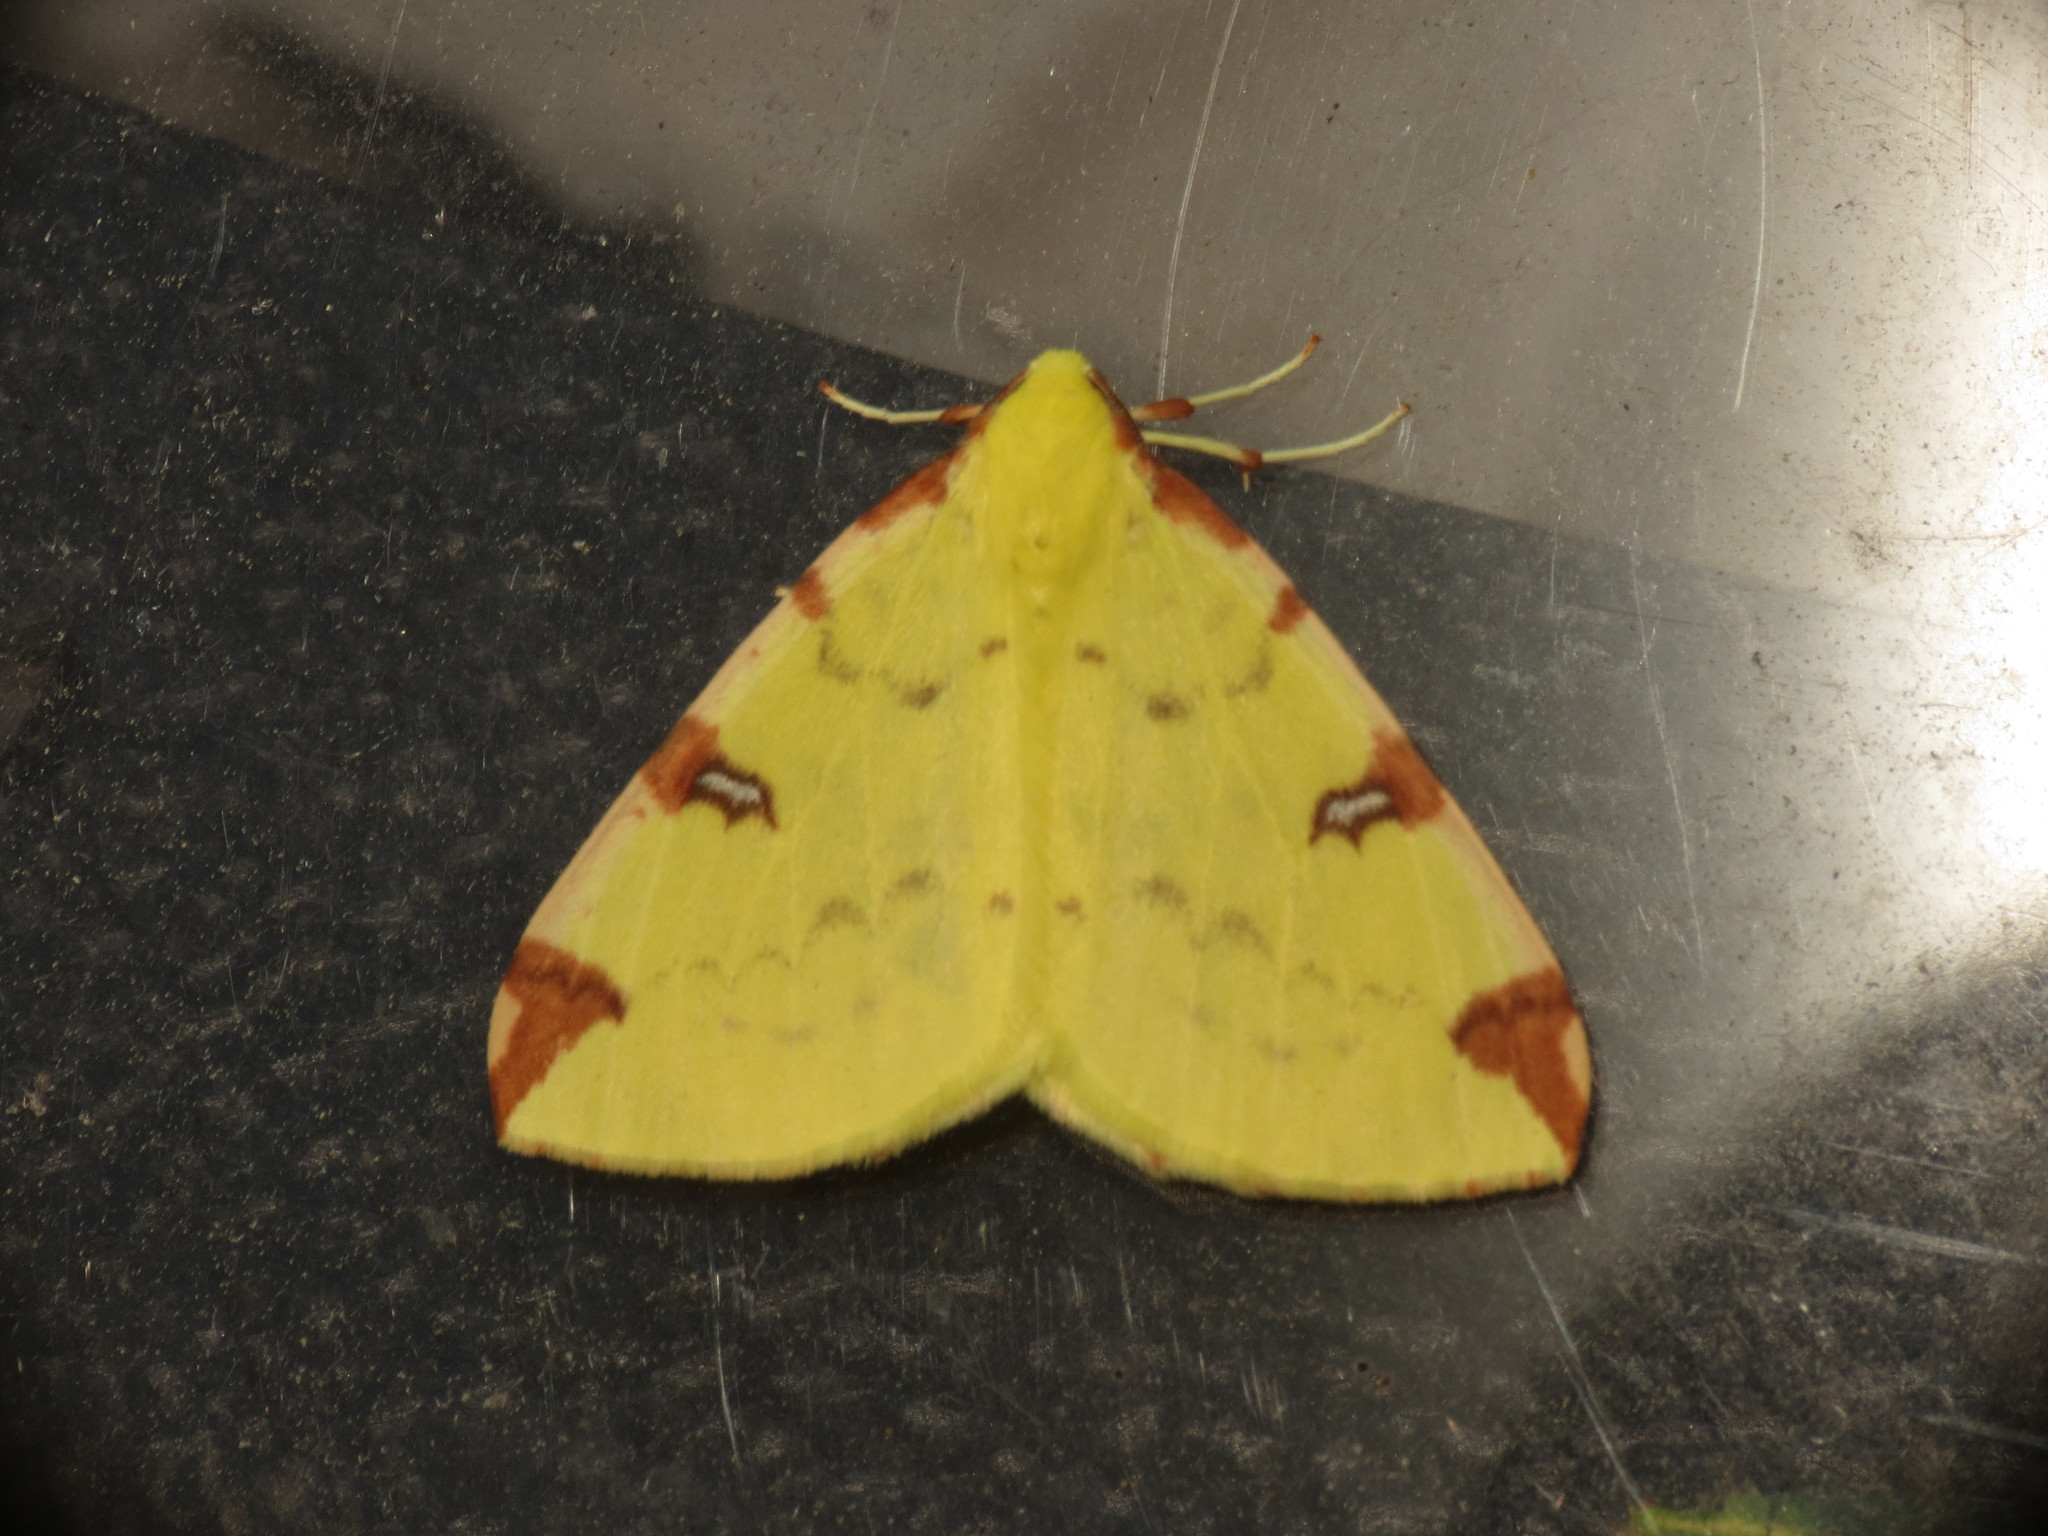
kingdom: Animalia
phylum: Arthropoda
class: Insecta
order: Lepidoptera
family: Geometridae
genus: Opisthograptis
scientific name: Opisthograptis luteolata
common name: Brimstone moth
